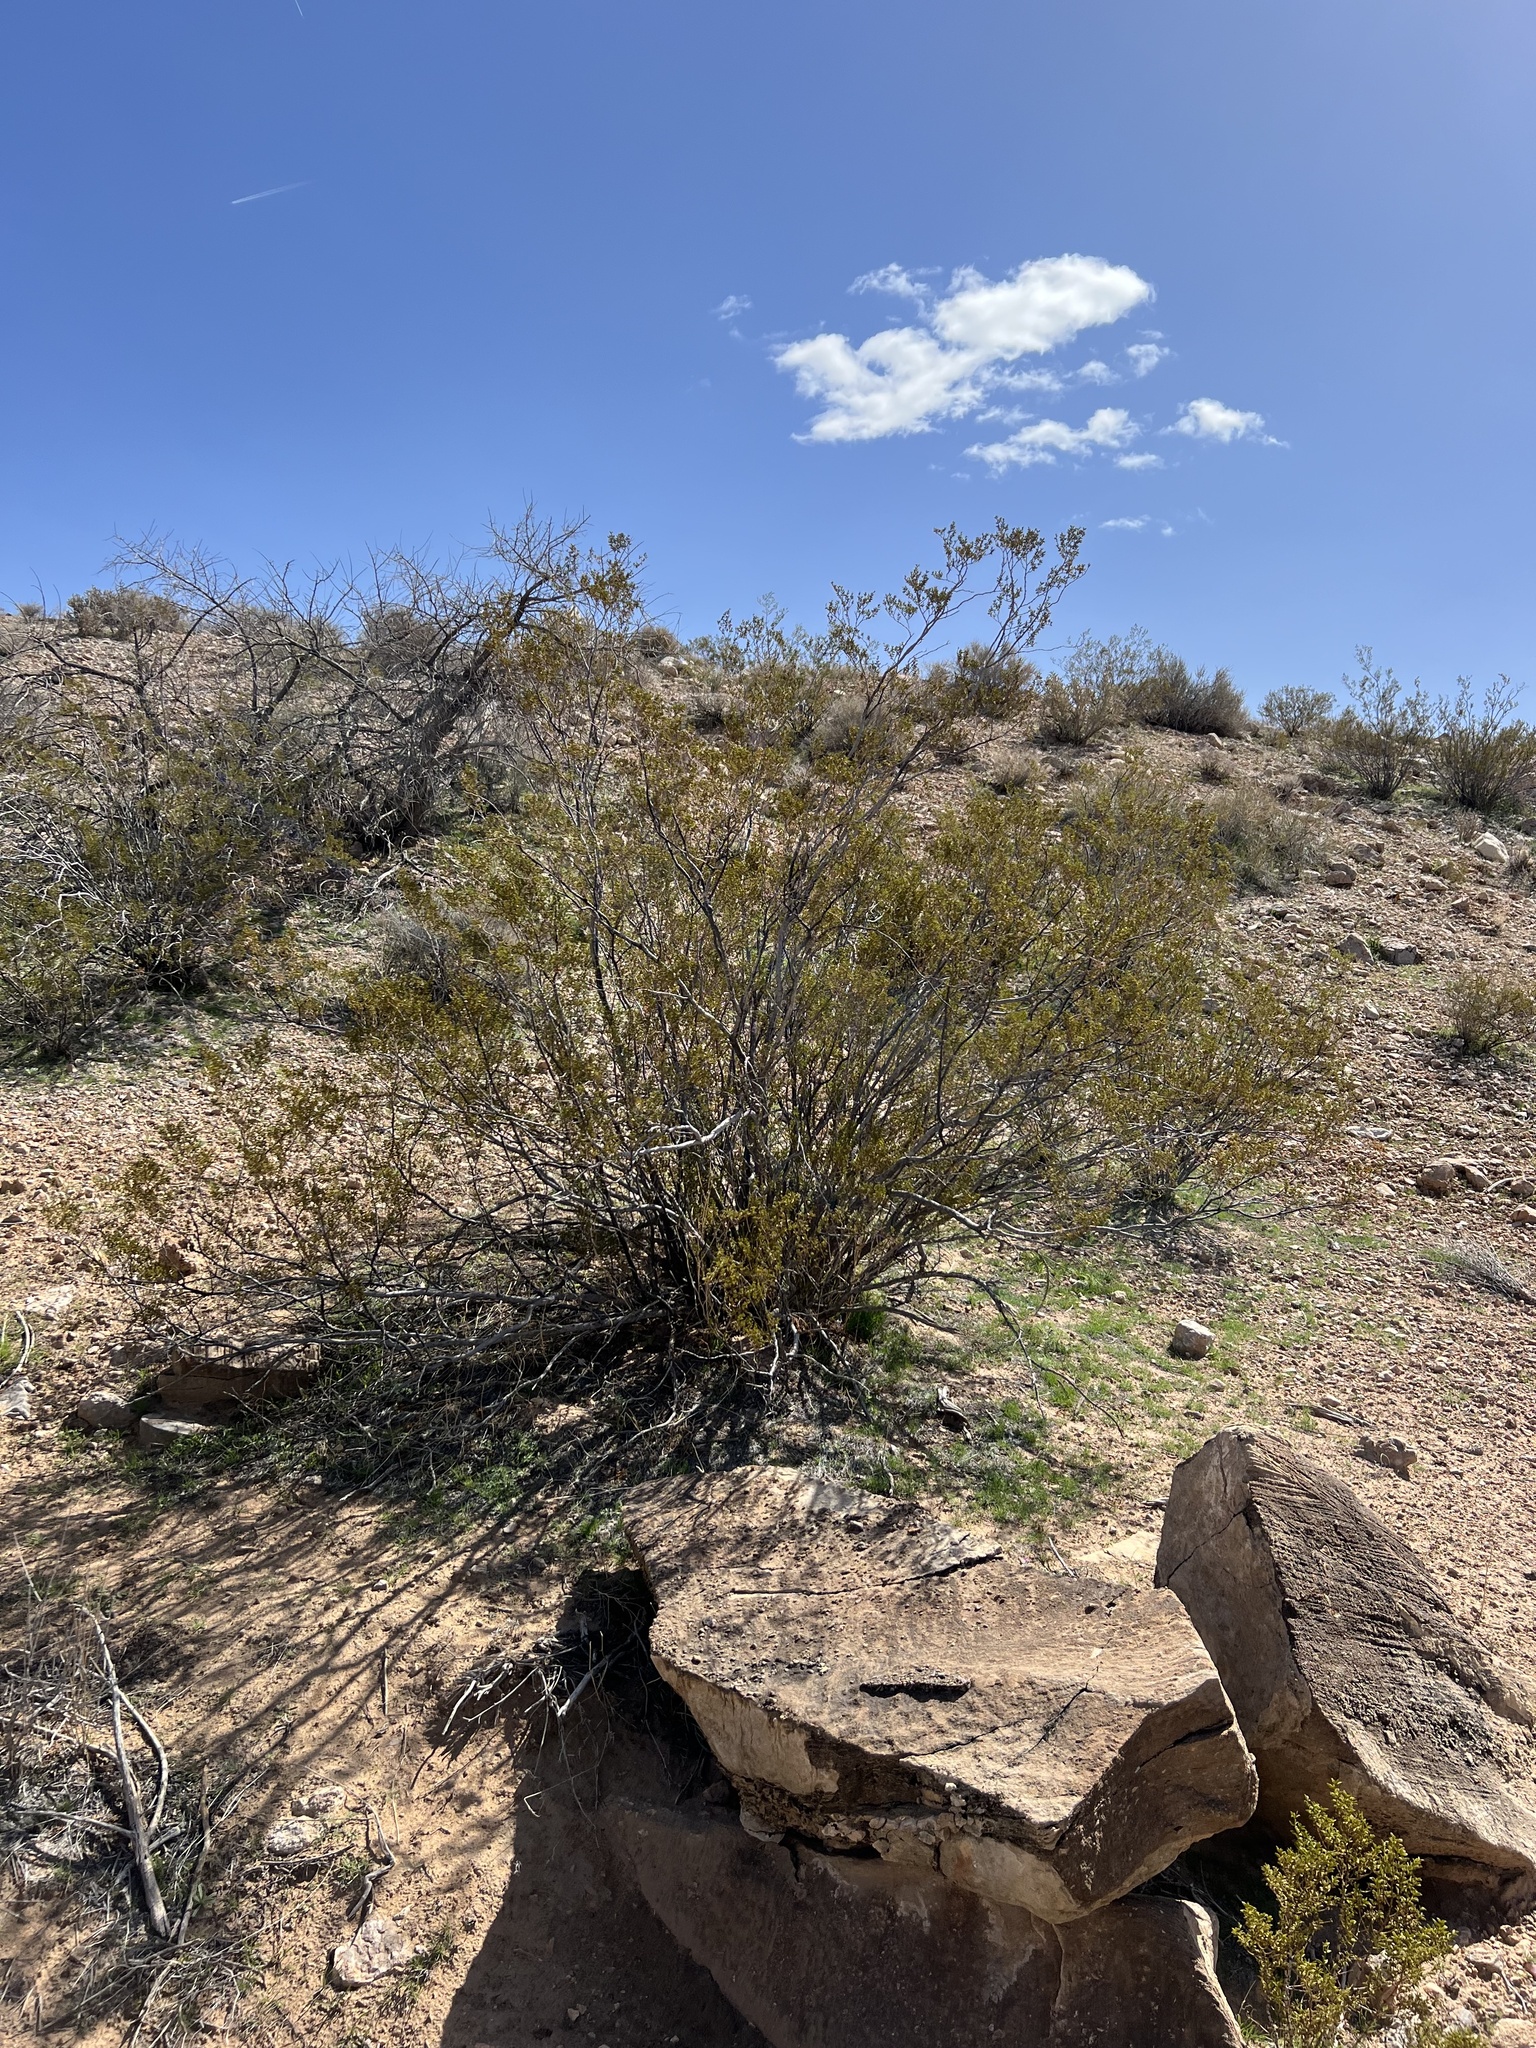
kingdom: Plantae
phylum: Tracheophyta
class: Magnoliopsida
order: Zygophyllales
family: Zygophyllaceae
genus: Larrea
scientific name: Larrea tridentata
